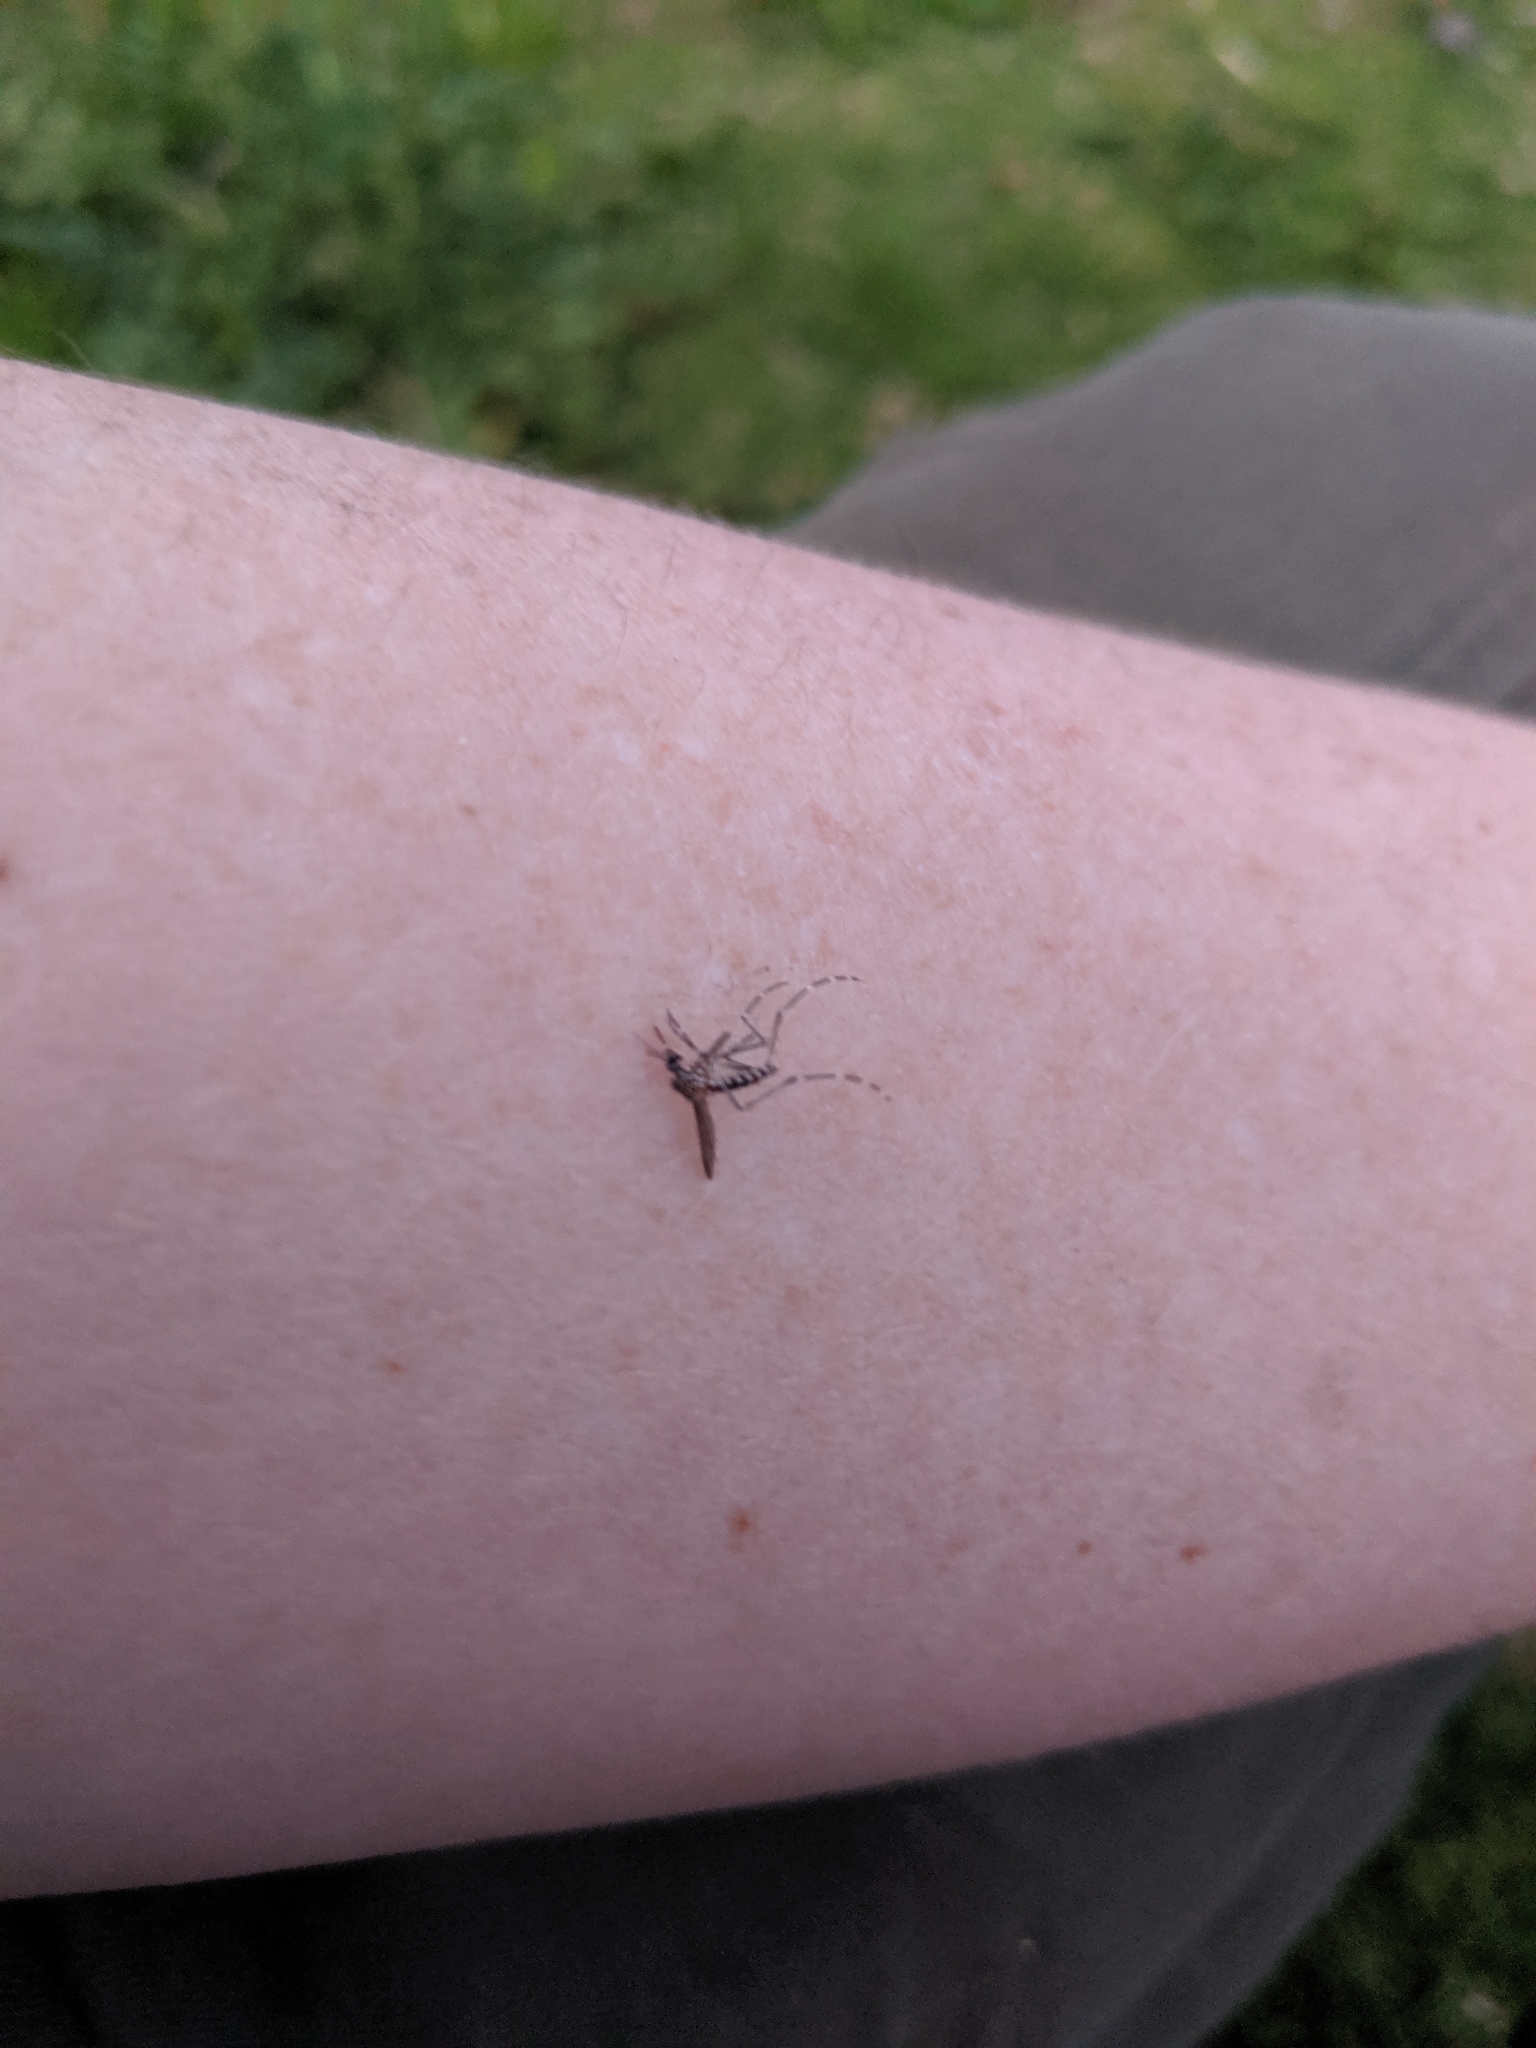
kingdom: Animalia
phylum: Arthropoda
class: Insecta
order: Diptera
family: Culicidae
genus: Aedes
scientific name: Aedes notoscriptus
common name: Australian backyard mosquito
